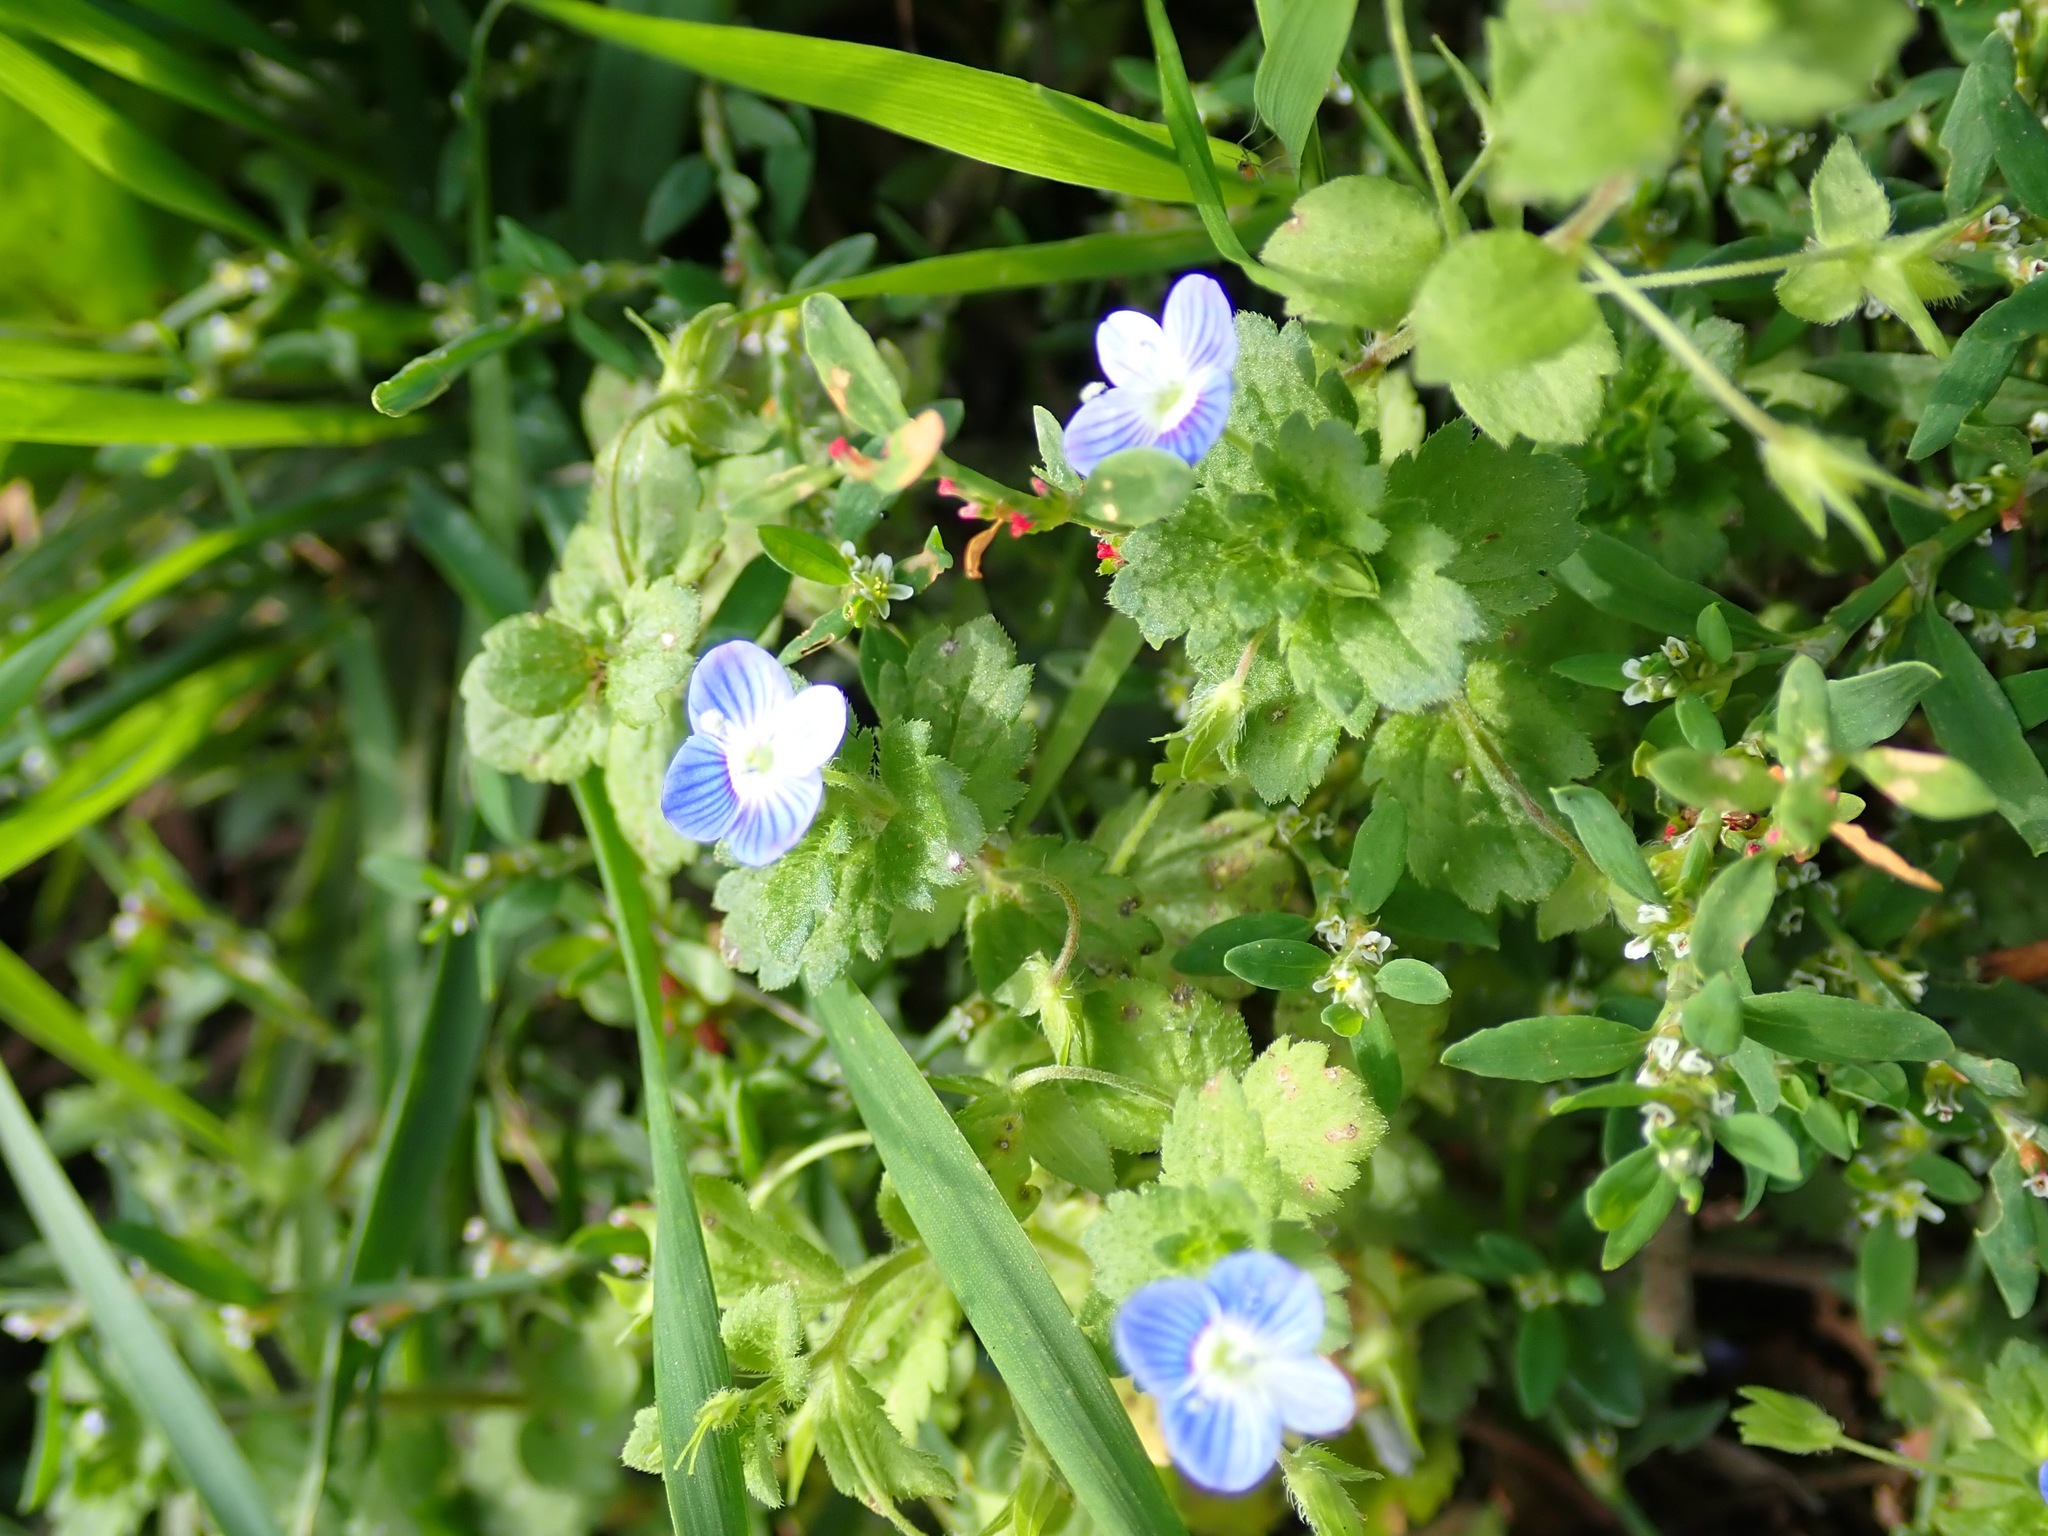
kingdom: Plantae
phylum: Tracheophyta
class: Magnoliopsida
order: Lamiales
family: Plantaginaceae
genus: Veronica
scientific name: Veronica persica
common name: Common field-speedwell
